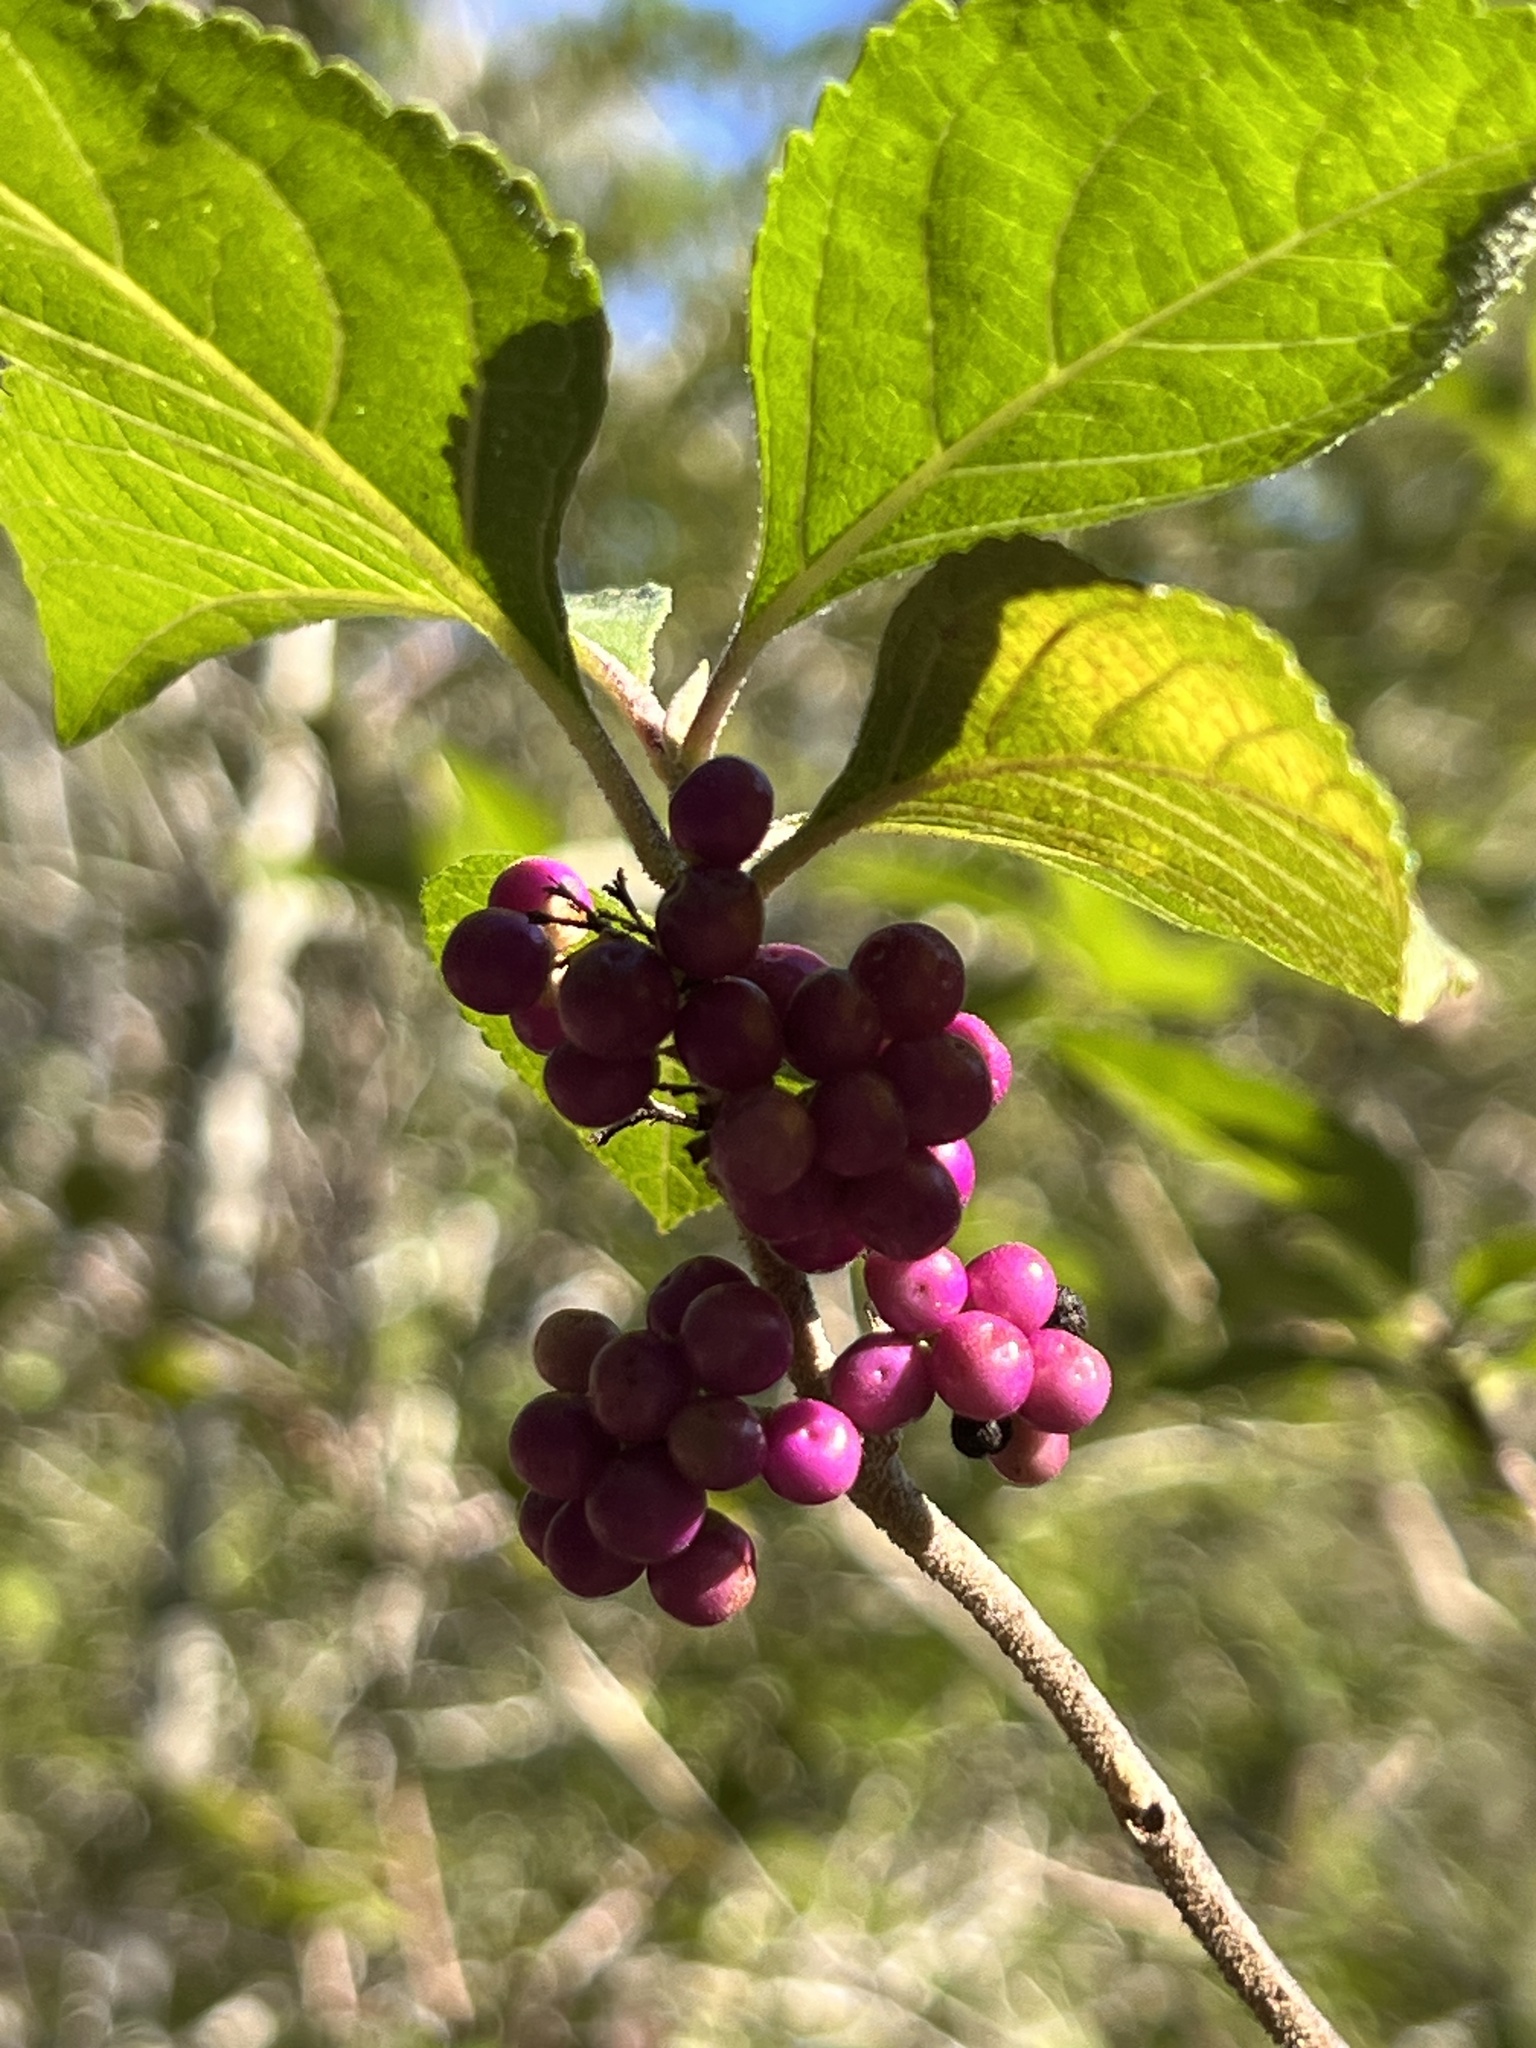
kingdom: Plantae
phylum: Tracheophyta
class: Magnoliopsida
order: Lamiales
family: Lamiaceae
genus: Callicarpa
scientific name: Callicarpa americana
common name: American beautyberry
